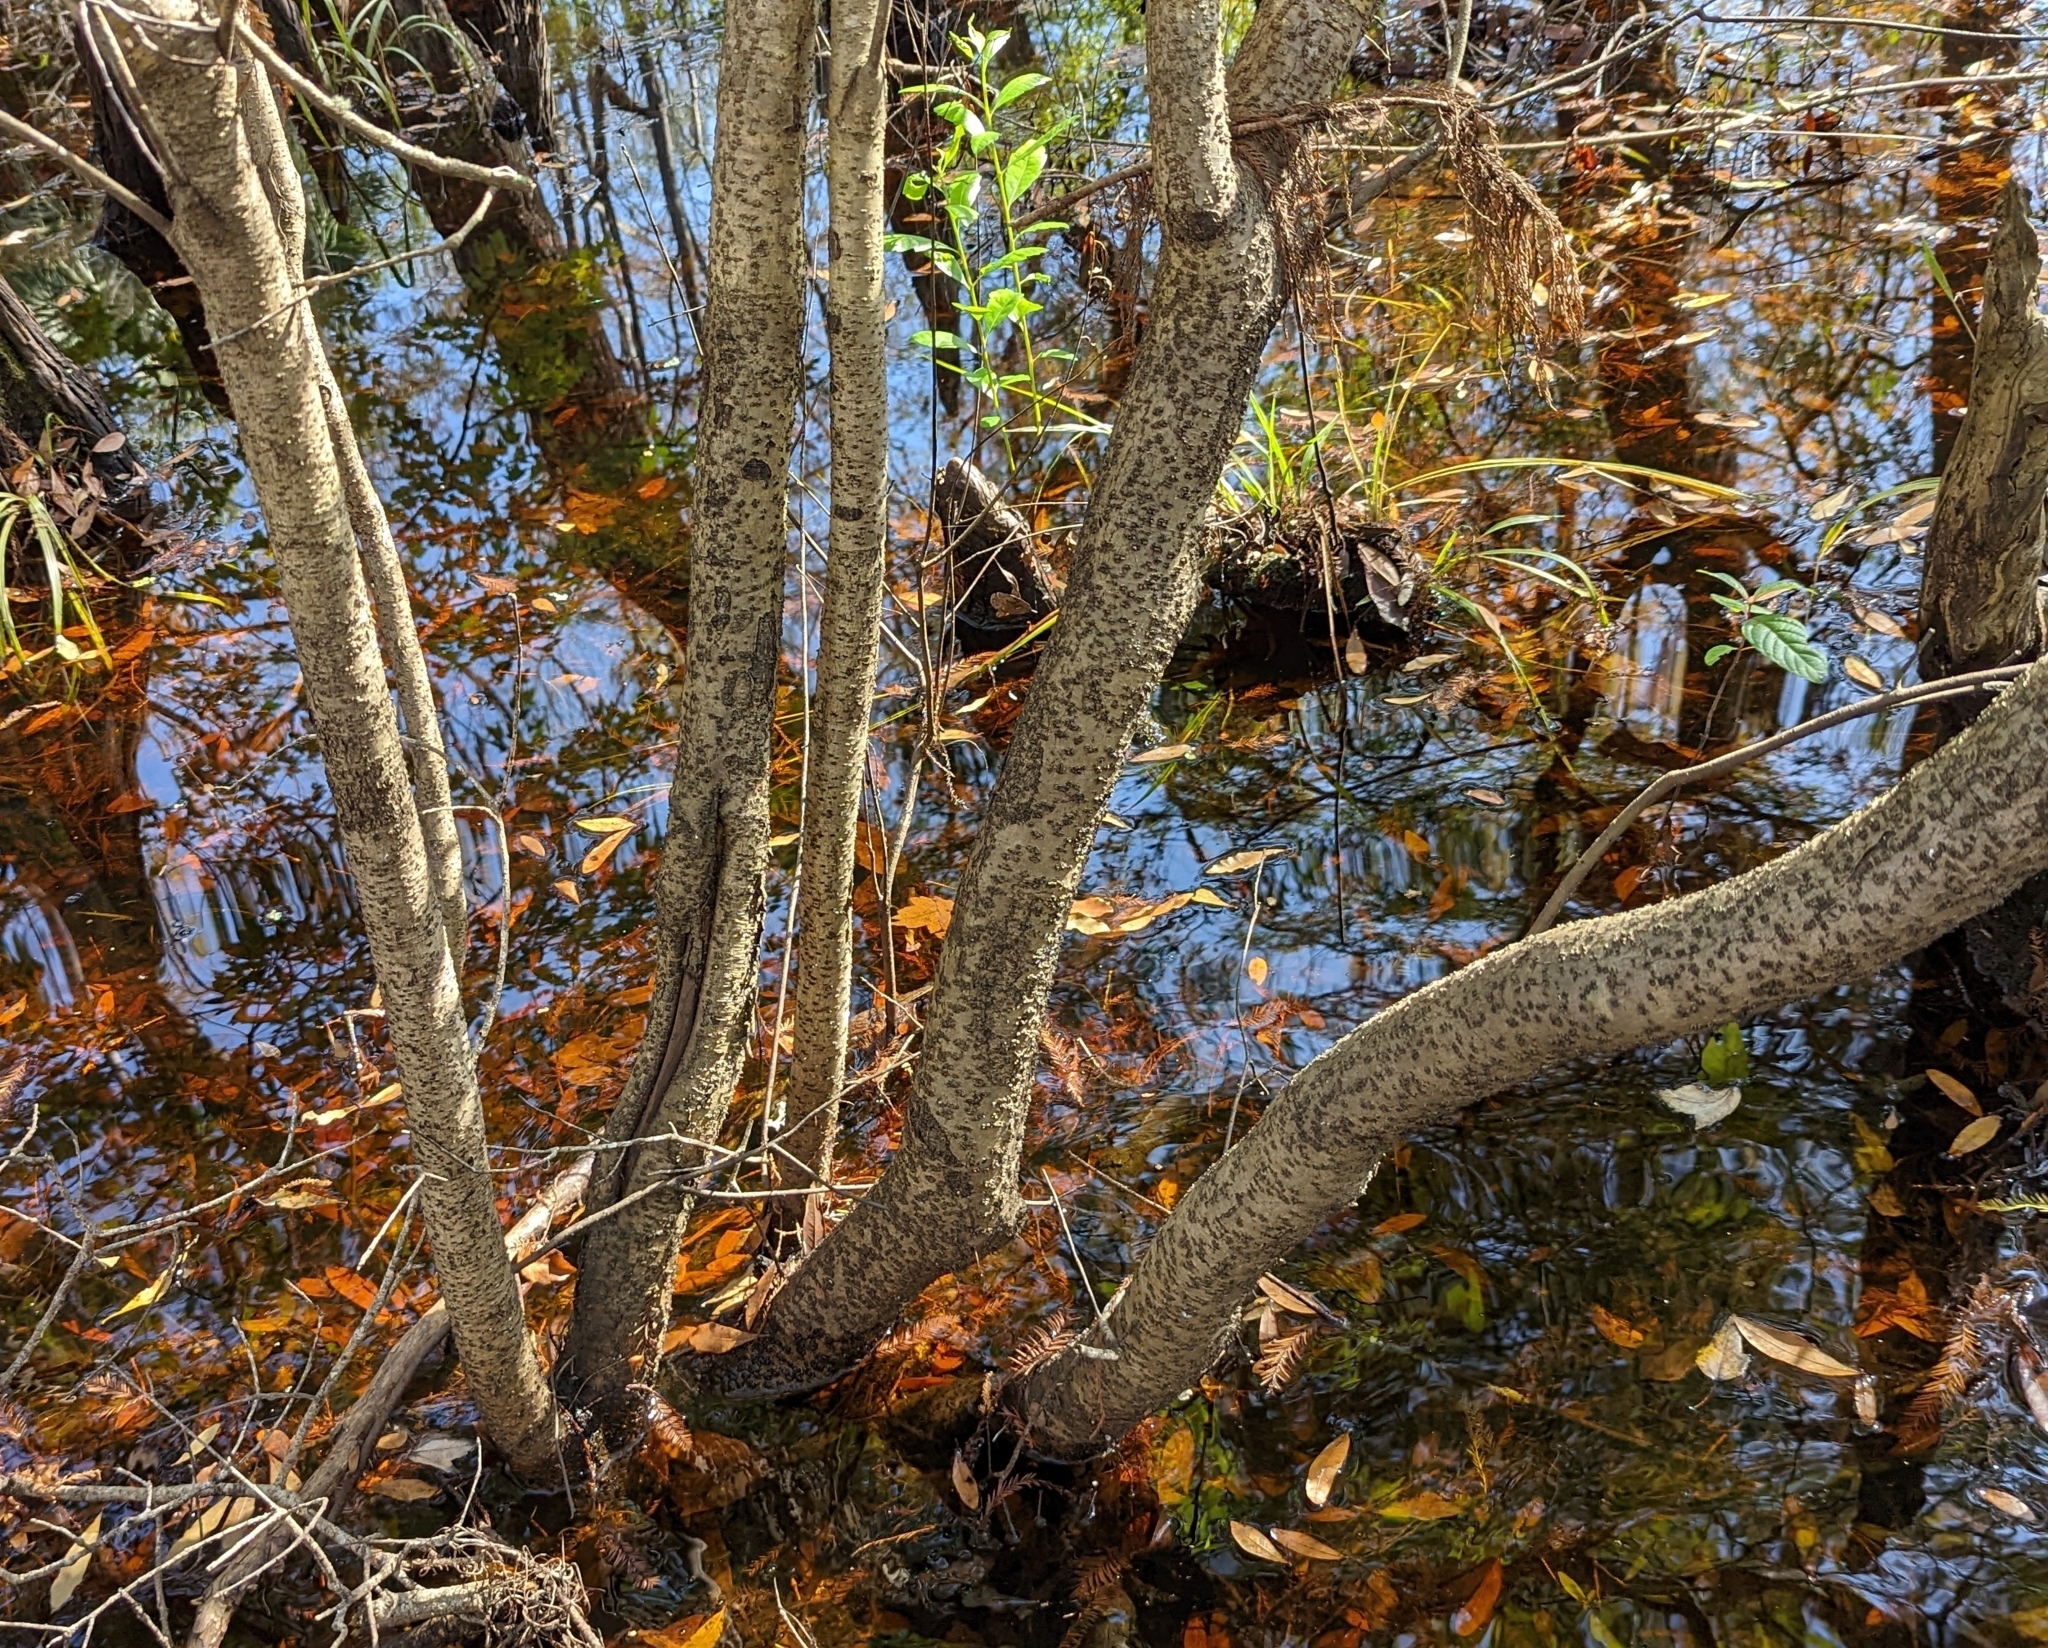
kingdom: Plantae
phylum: Tracheophyta
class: Magnoliopsida
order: Fagales
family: Myricaceae
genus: Morella
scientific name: Morella cerifera
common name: Wax myrtle
